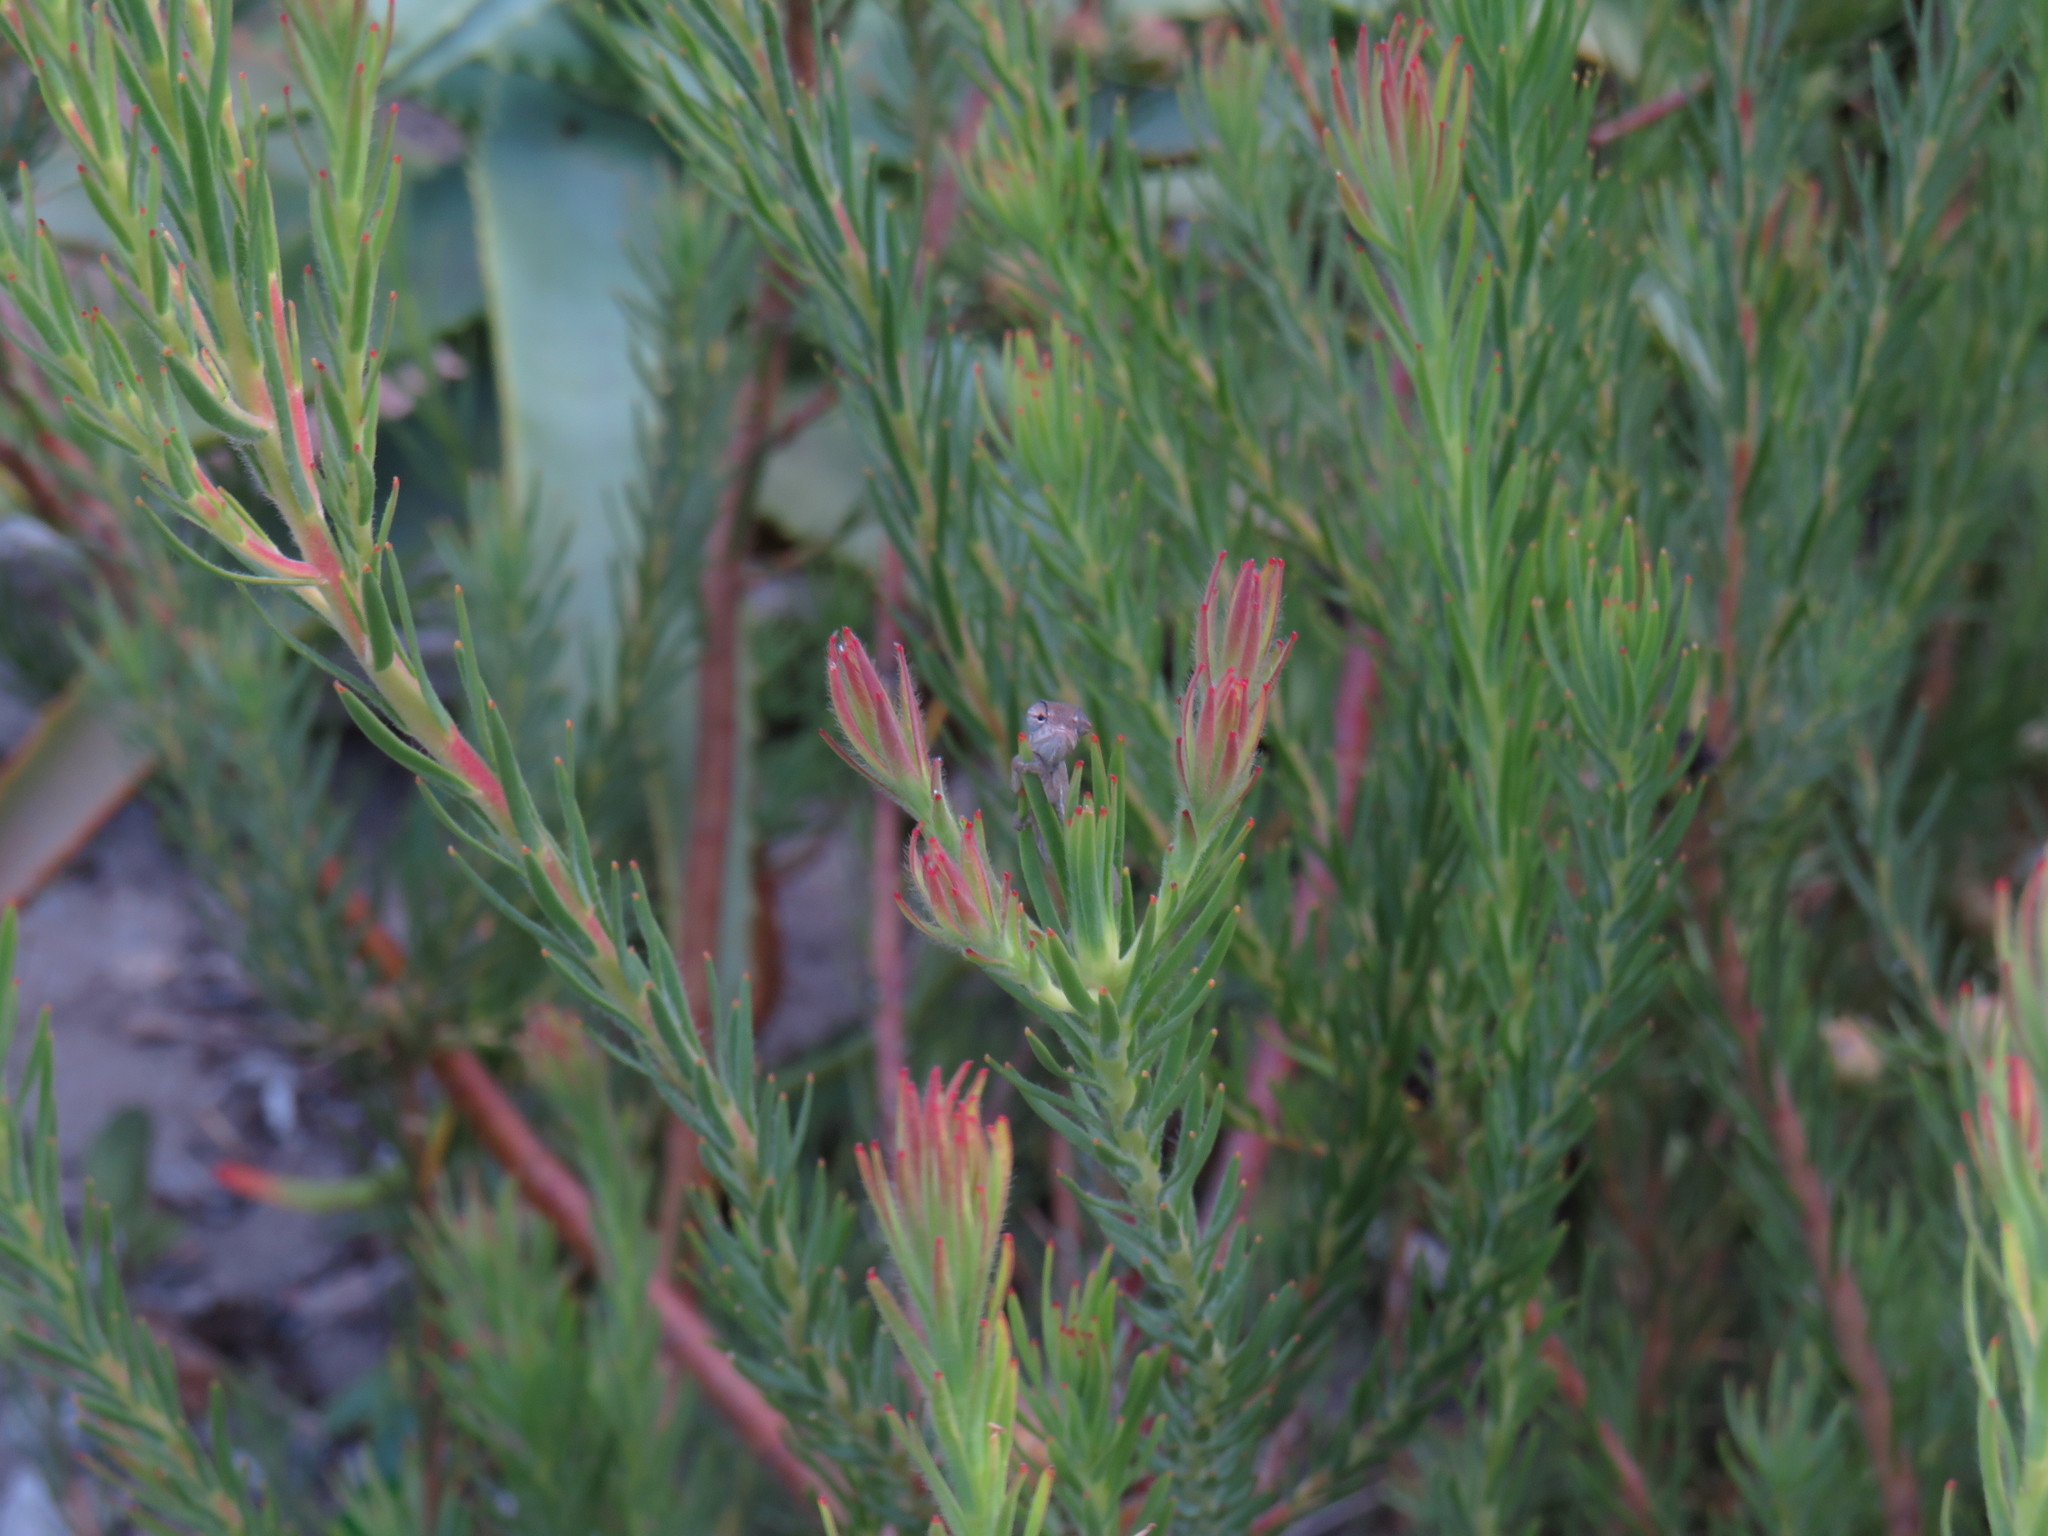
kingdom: Animalia
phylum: Chordata
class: Squamata
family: Chamaeleonidae
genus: Bradypodion
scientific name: Bradypodion pumilum
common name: Cape dwarf chameleon
